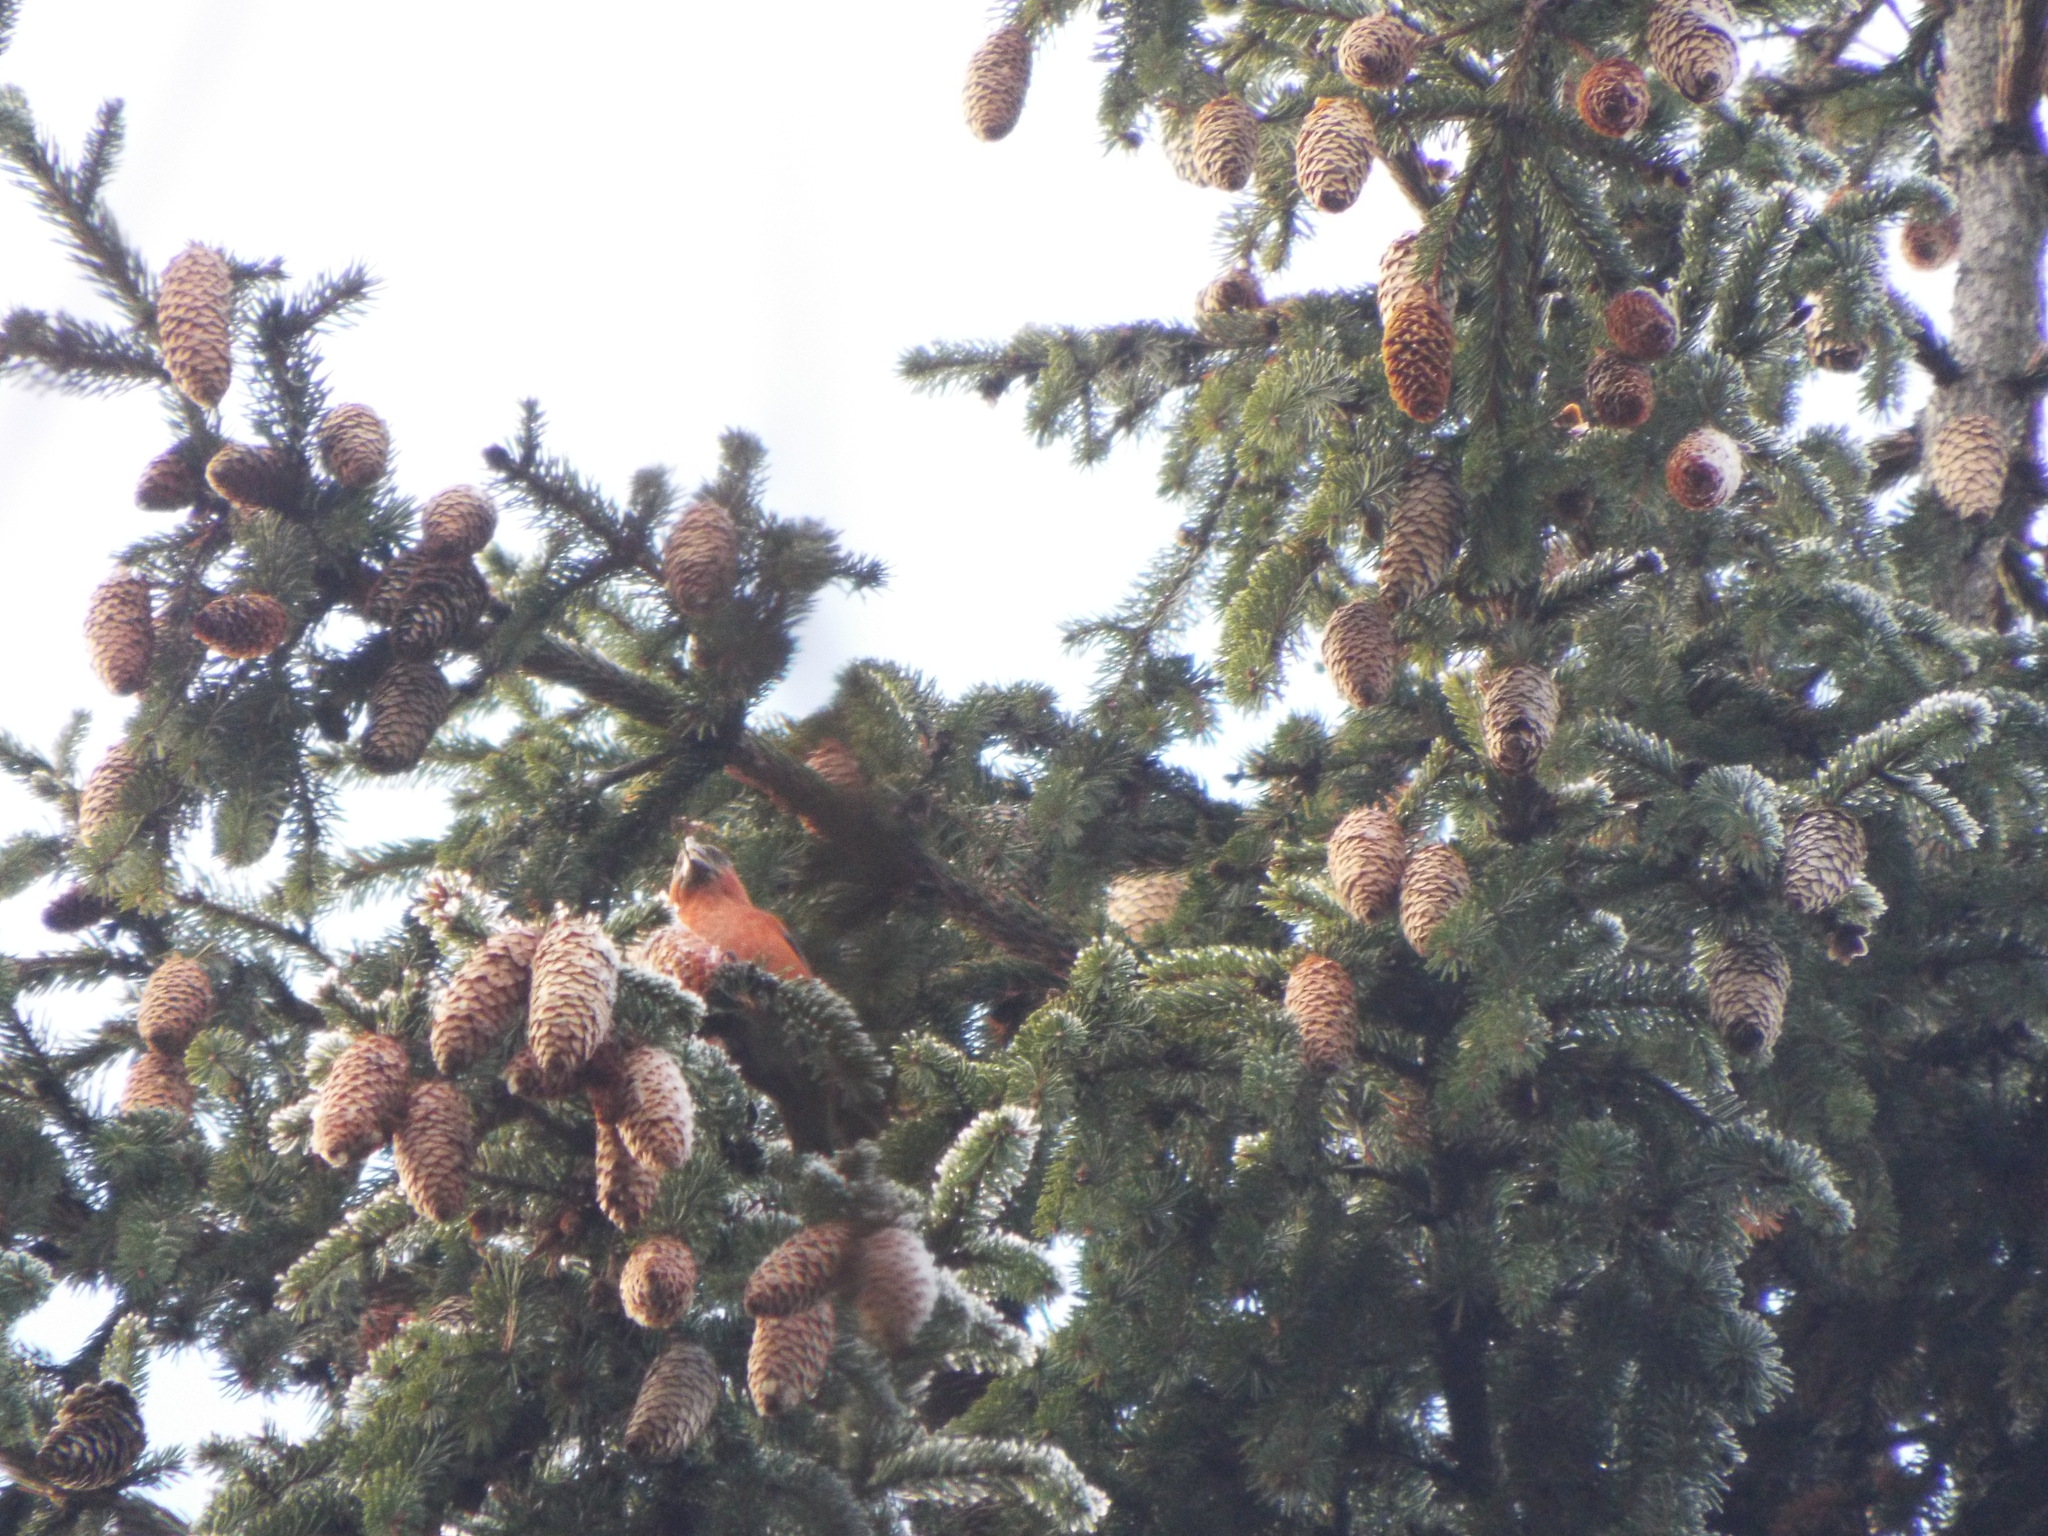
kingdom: Animalia
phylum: Chordata
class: Aves
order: Passeriformes
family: Fringillidae
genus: Loxia
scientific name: Loxia curvirostra
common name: Red crossbill
